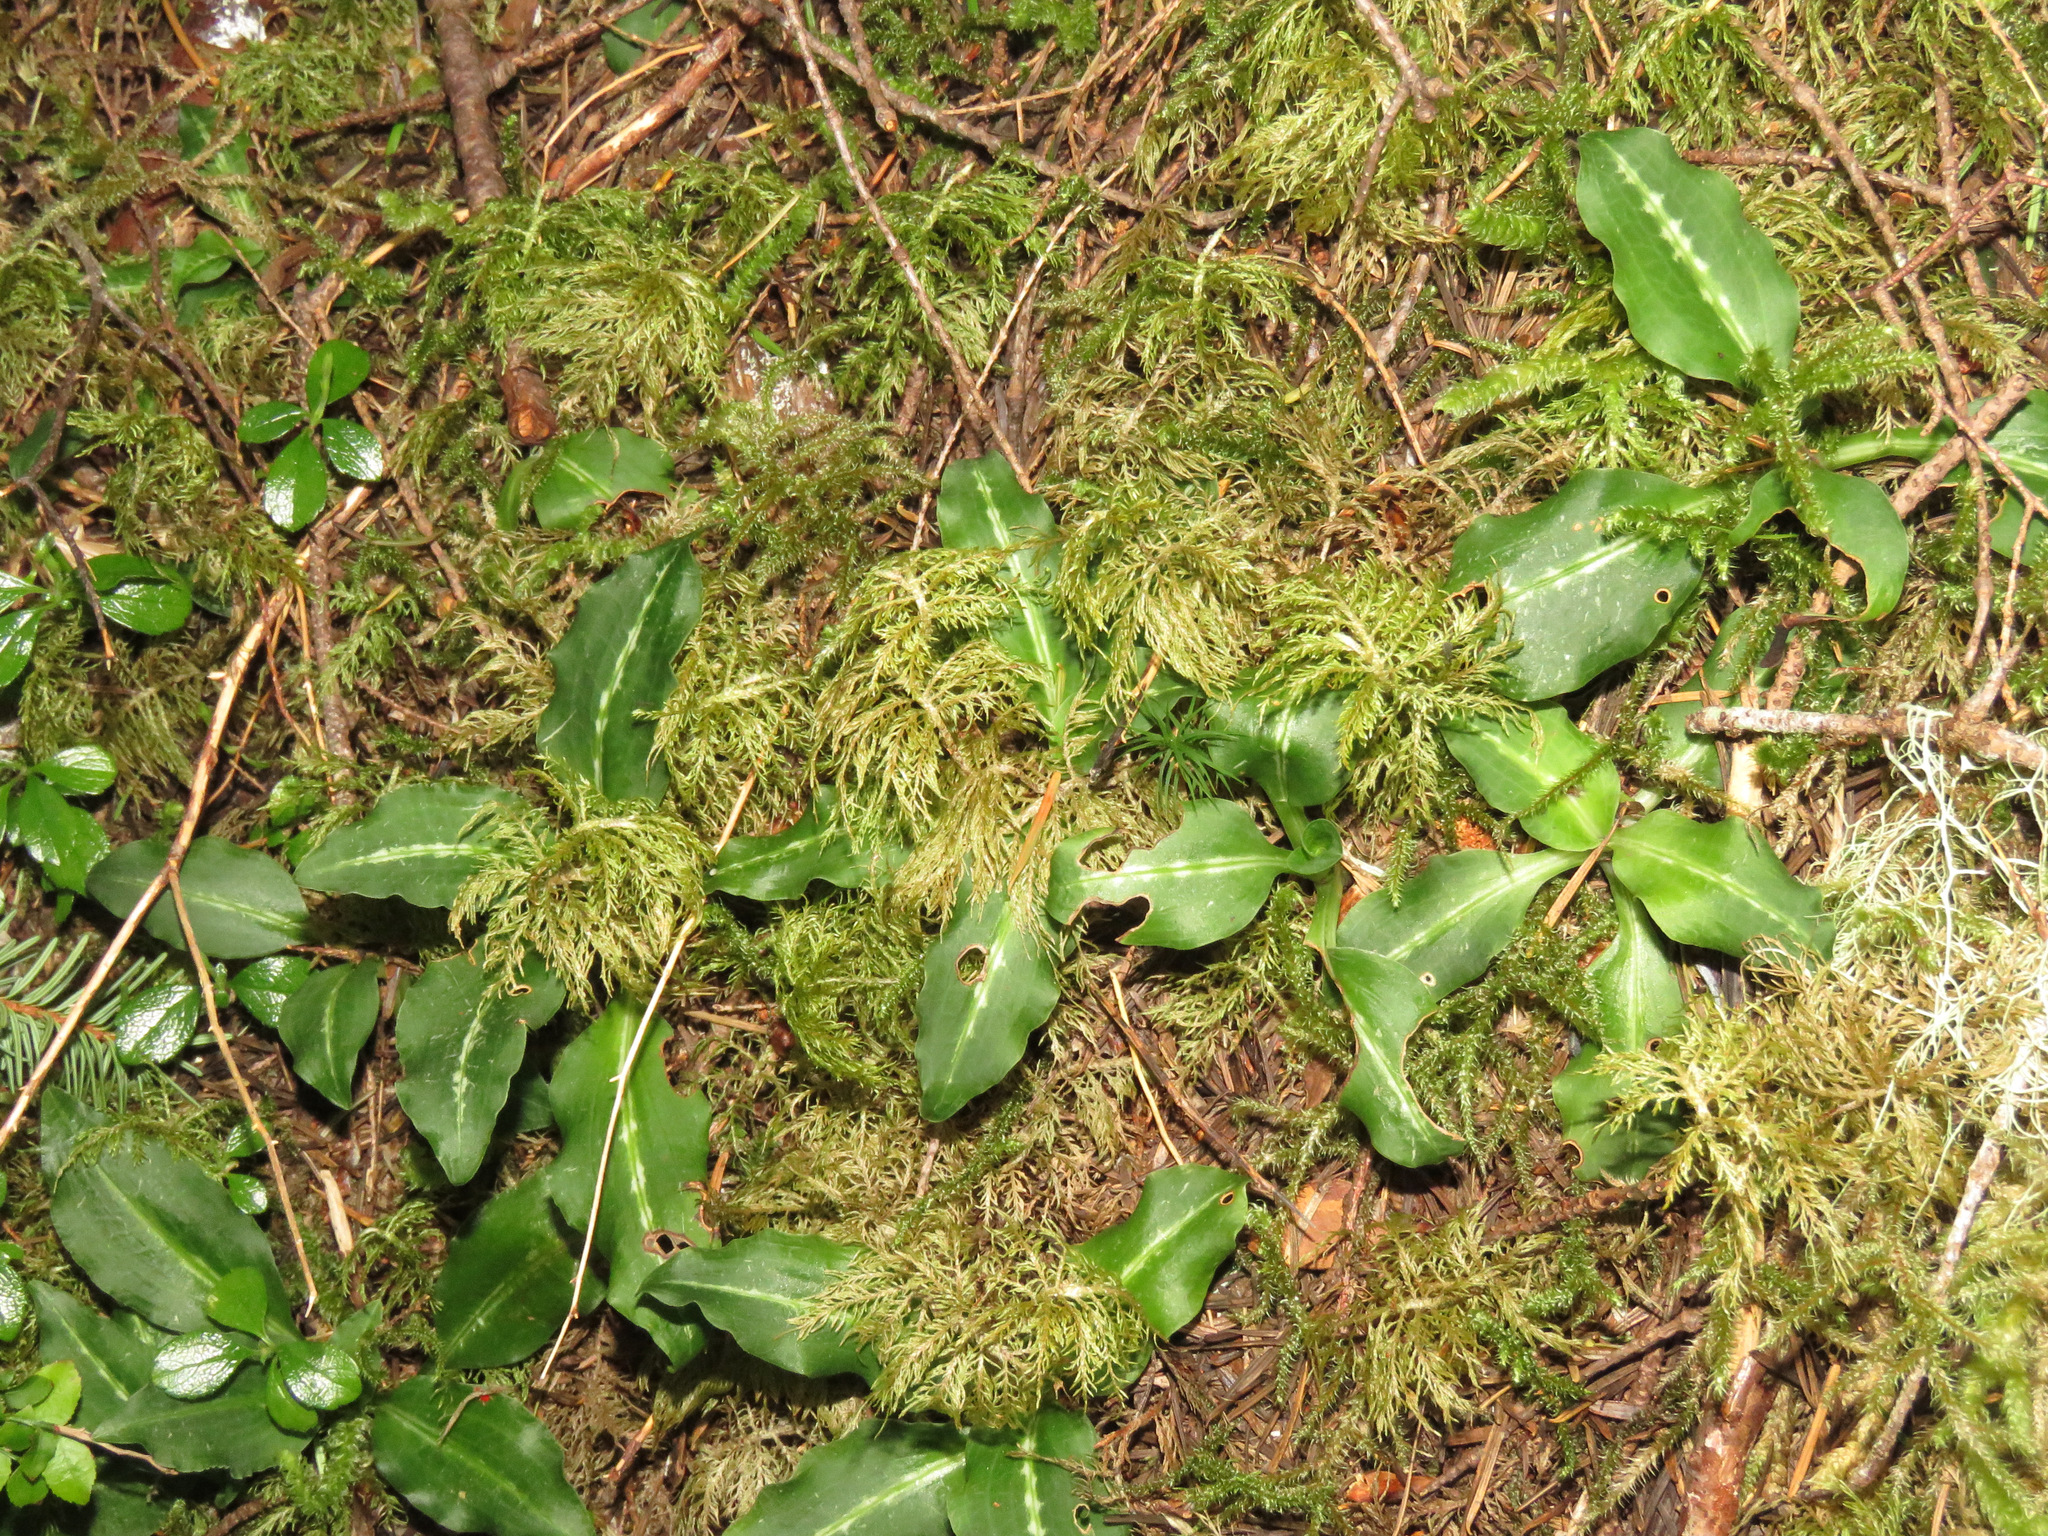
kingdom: Plantae
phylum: Tracheophyta
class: Liliopsida
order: Asparagales
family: Orchidaceae
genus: Goodyera
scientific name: Goodyera oblongifolia
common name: Giant rattlesnake-plantain
